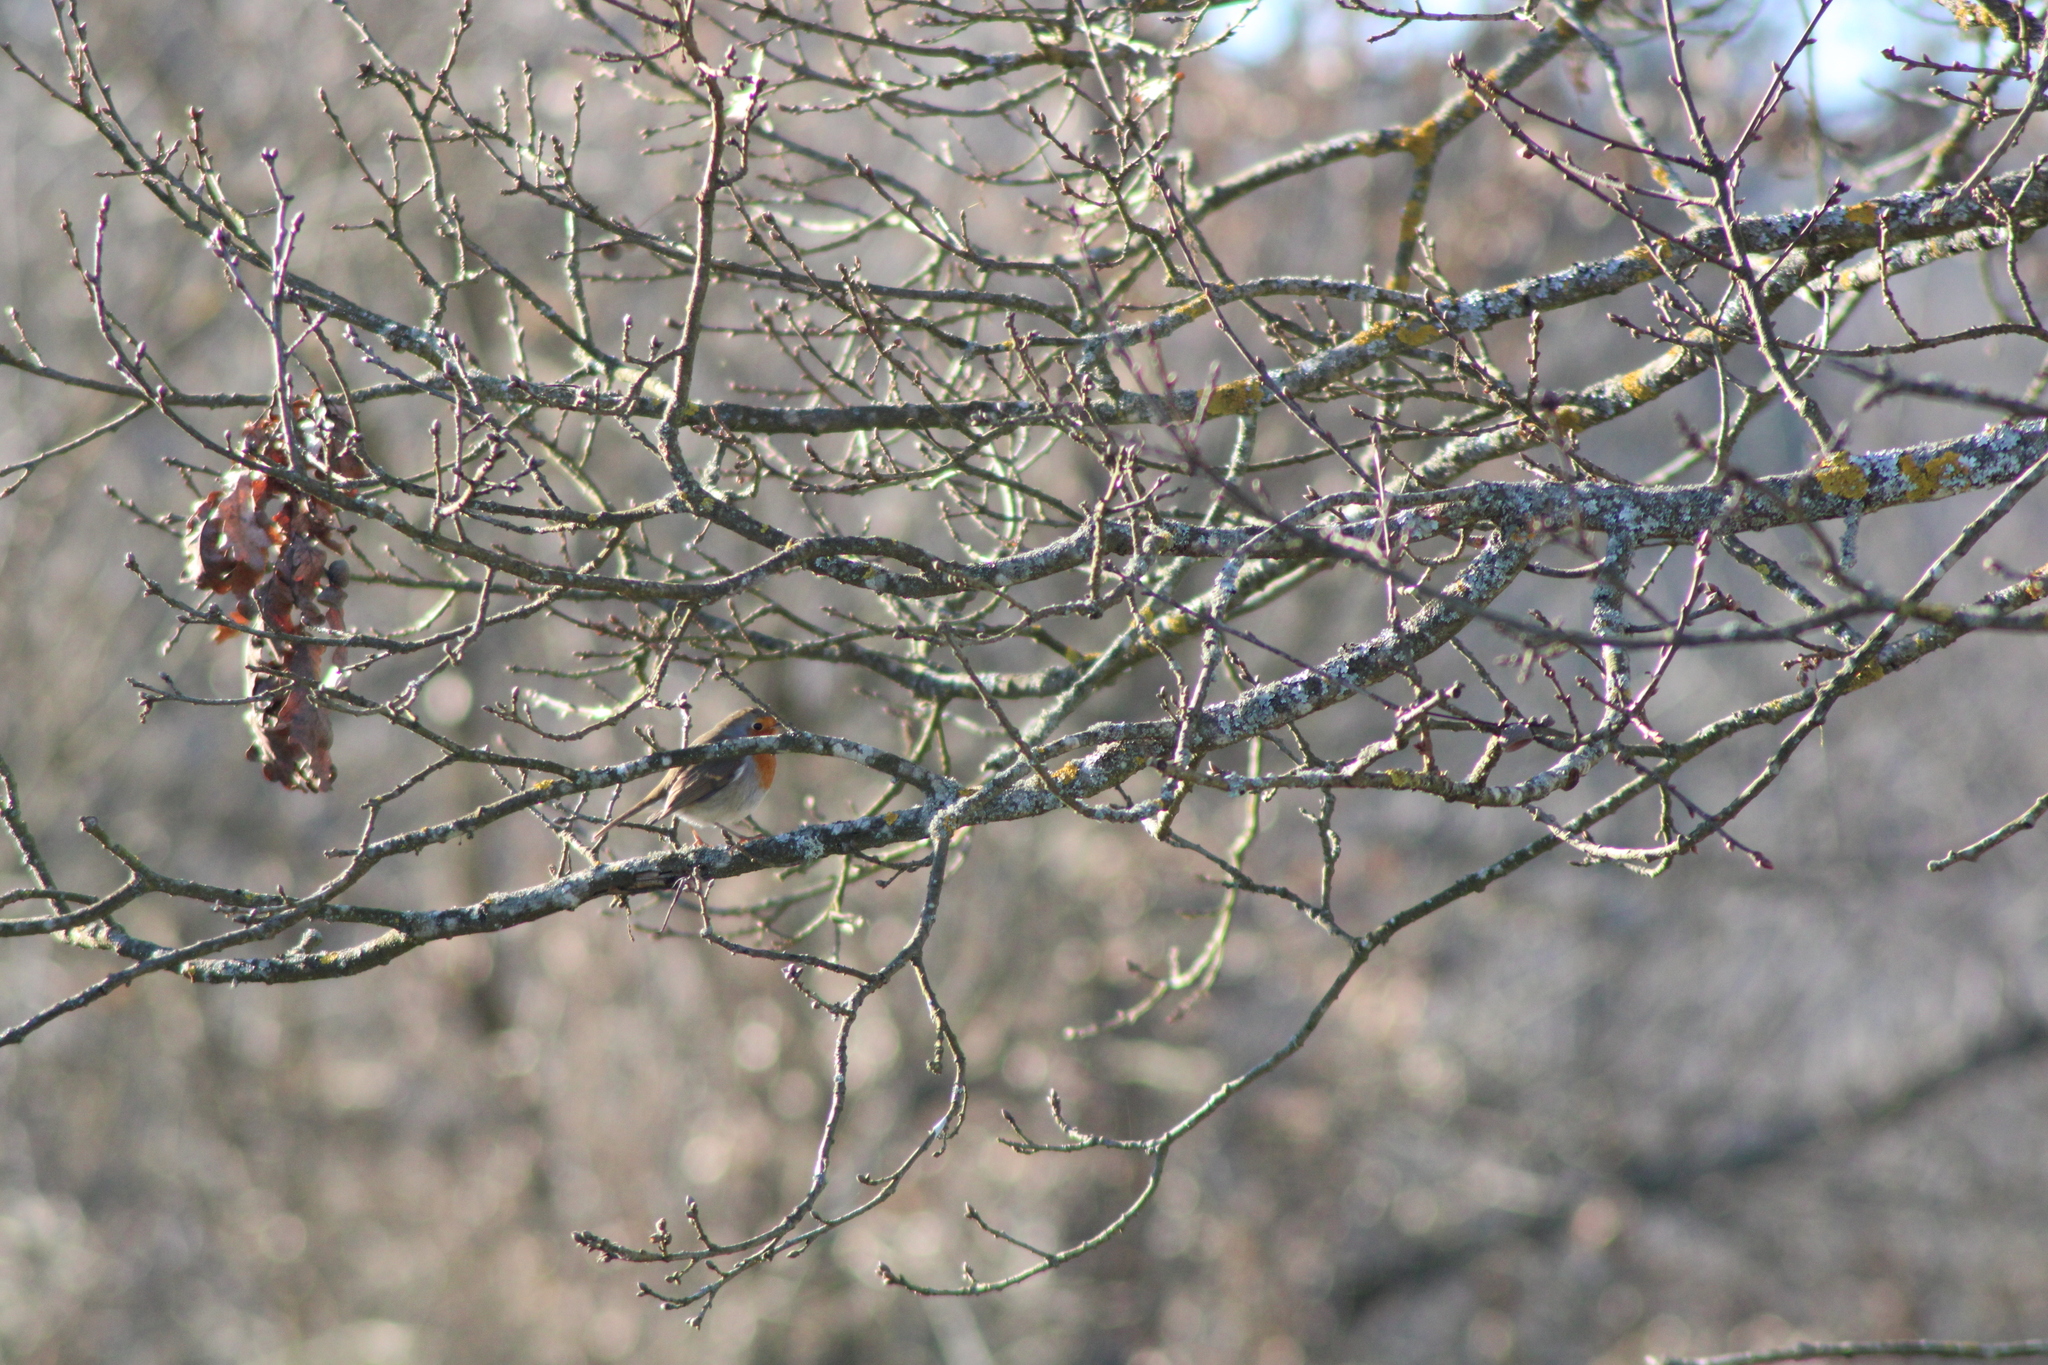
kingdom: Animalia
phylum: Chordata
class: Aves
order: Passeriformes
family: Muscicapidae
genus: Erithacus
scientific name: Erithacus rubecula
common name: European robin
